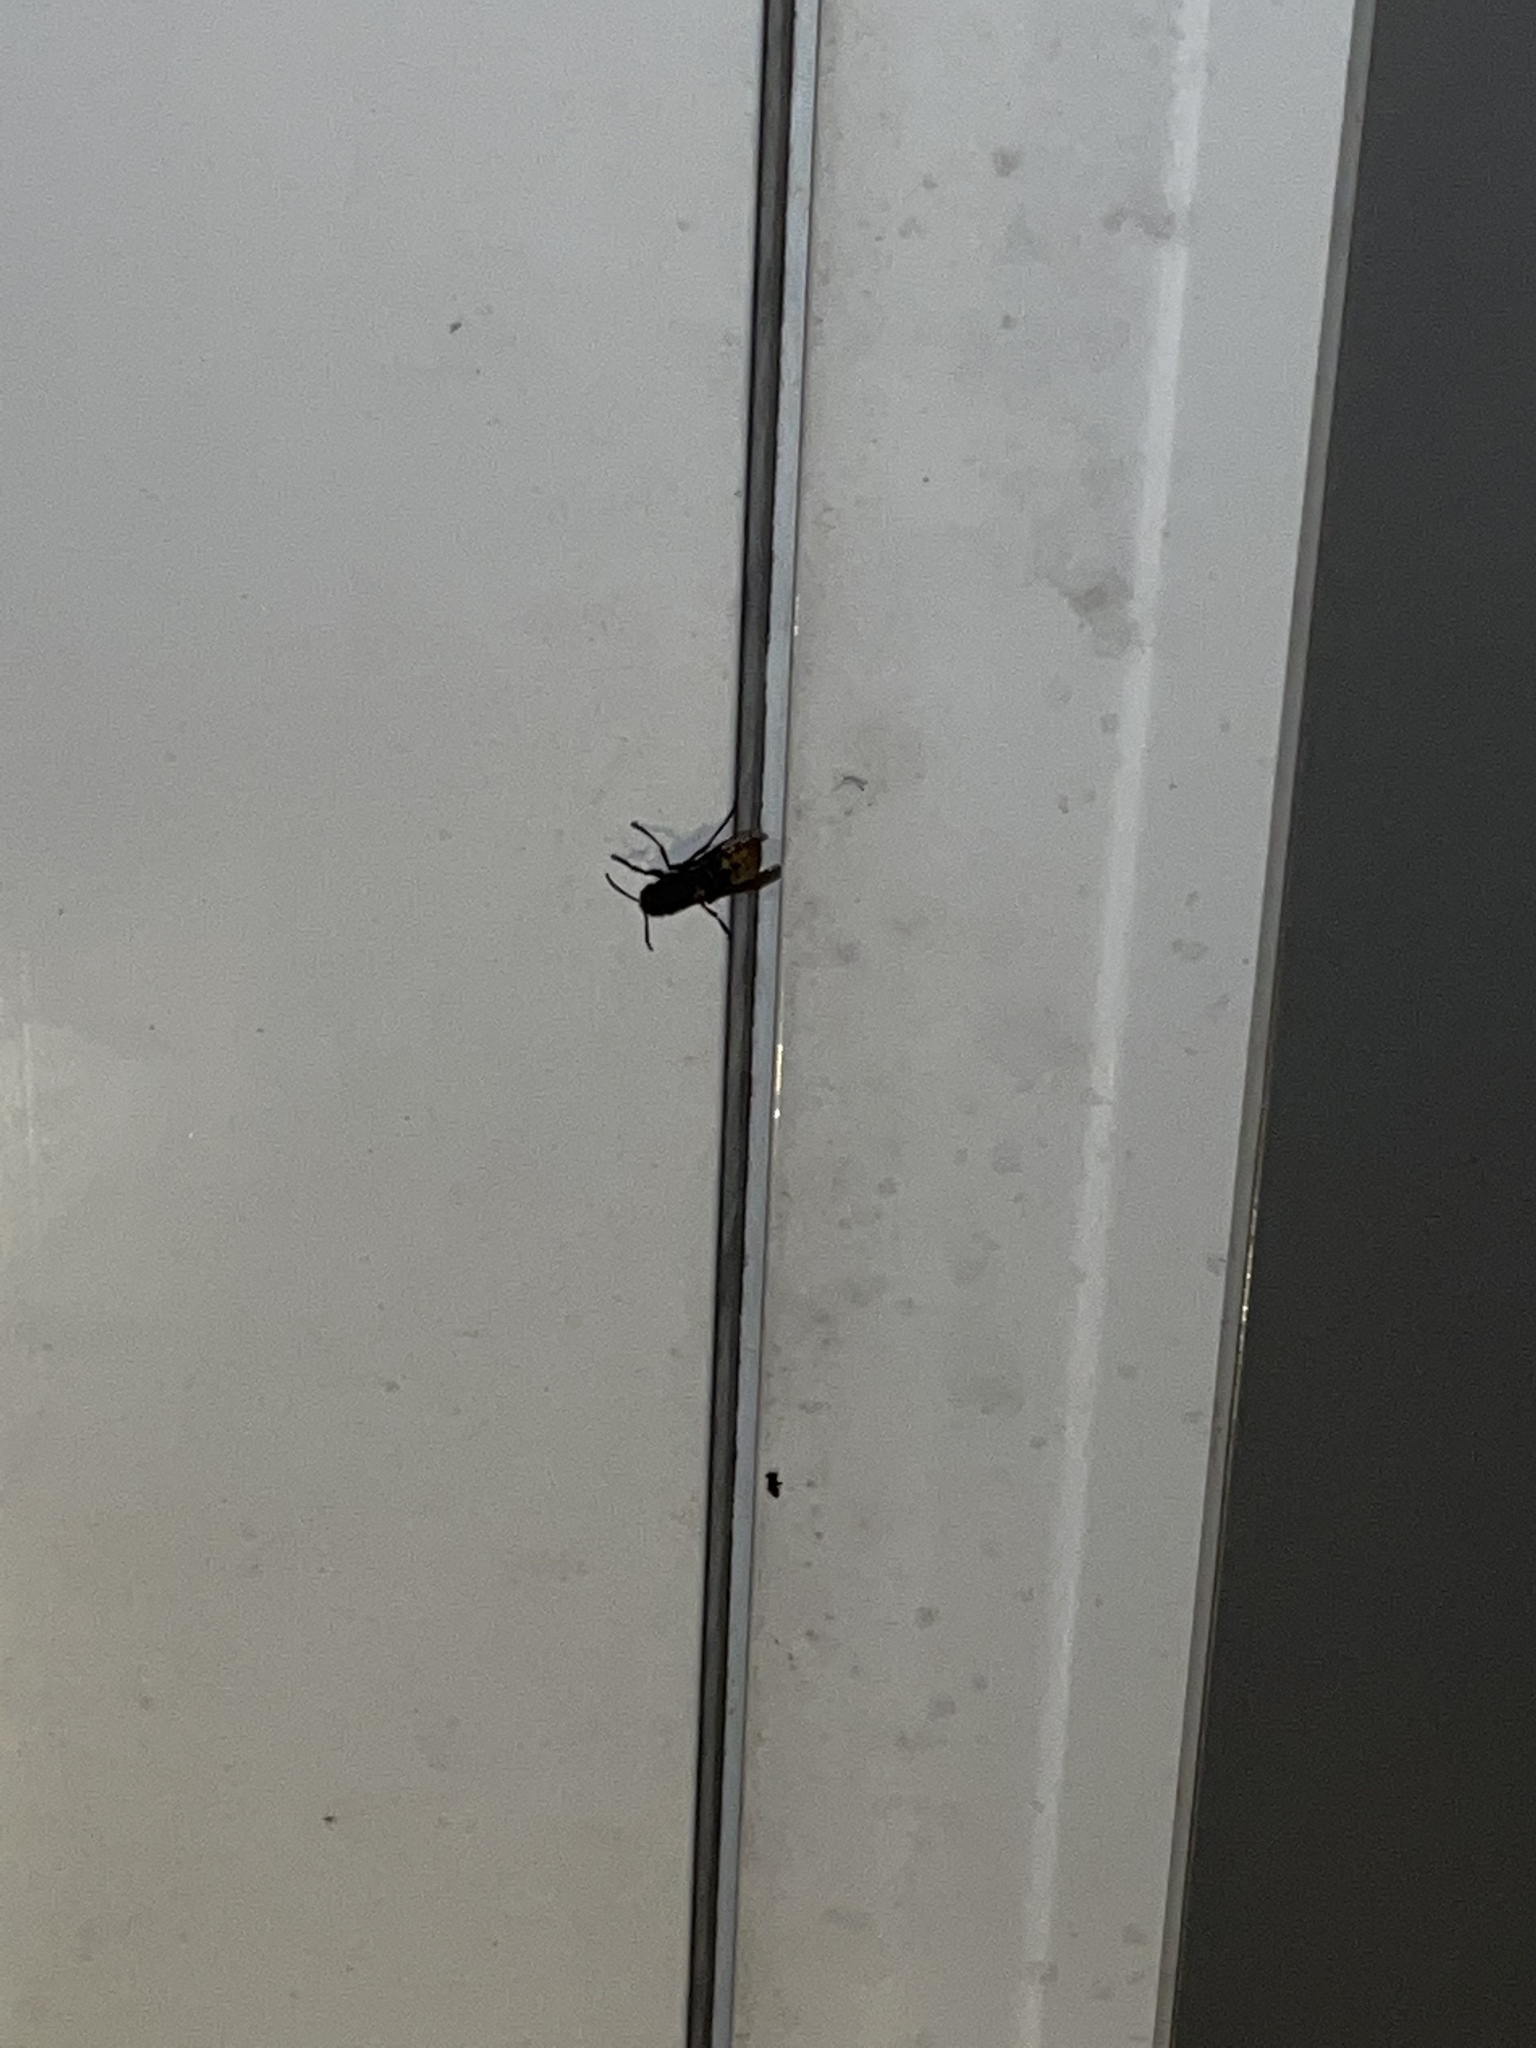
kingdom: Animalia
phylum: Arthropoda
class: Insecta
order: Hymenoptera
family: Vespidae
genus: Vespa
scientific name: Vespa crabro
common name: Hornet
